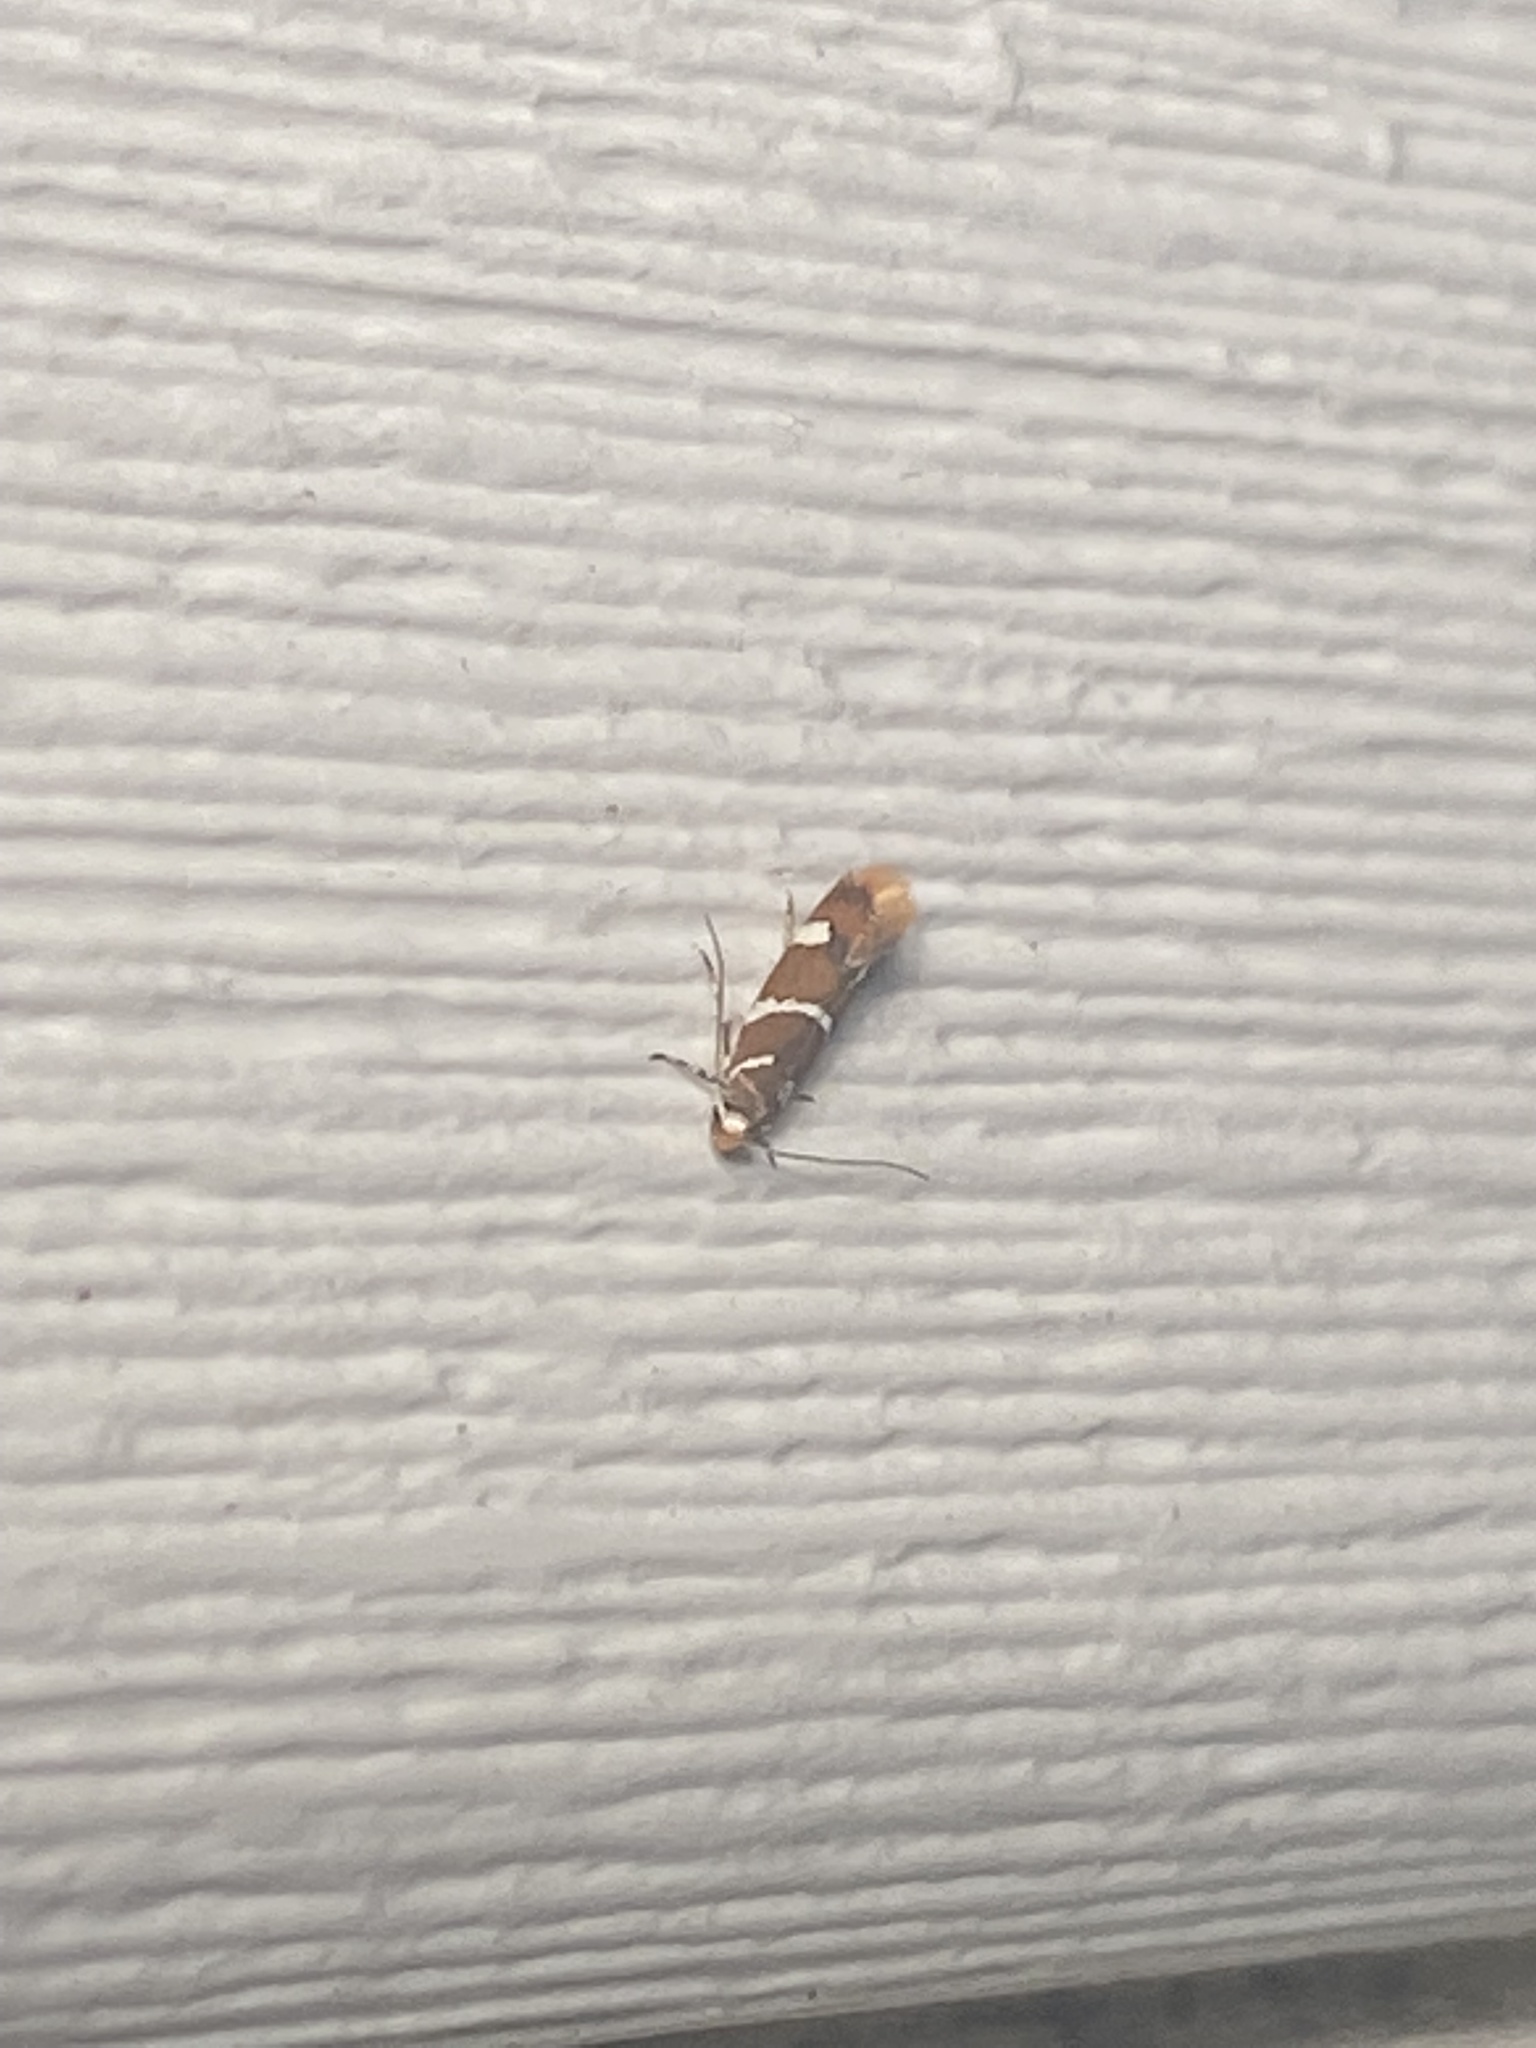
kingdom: Animalia
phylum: Arthropoda
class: Insecta
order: Lepidoptera
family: Oecophoridae
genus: Promalactis
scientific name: Promalactis suzukiella
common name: Moth
